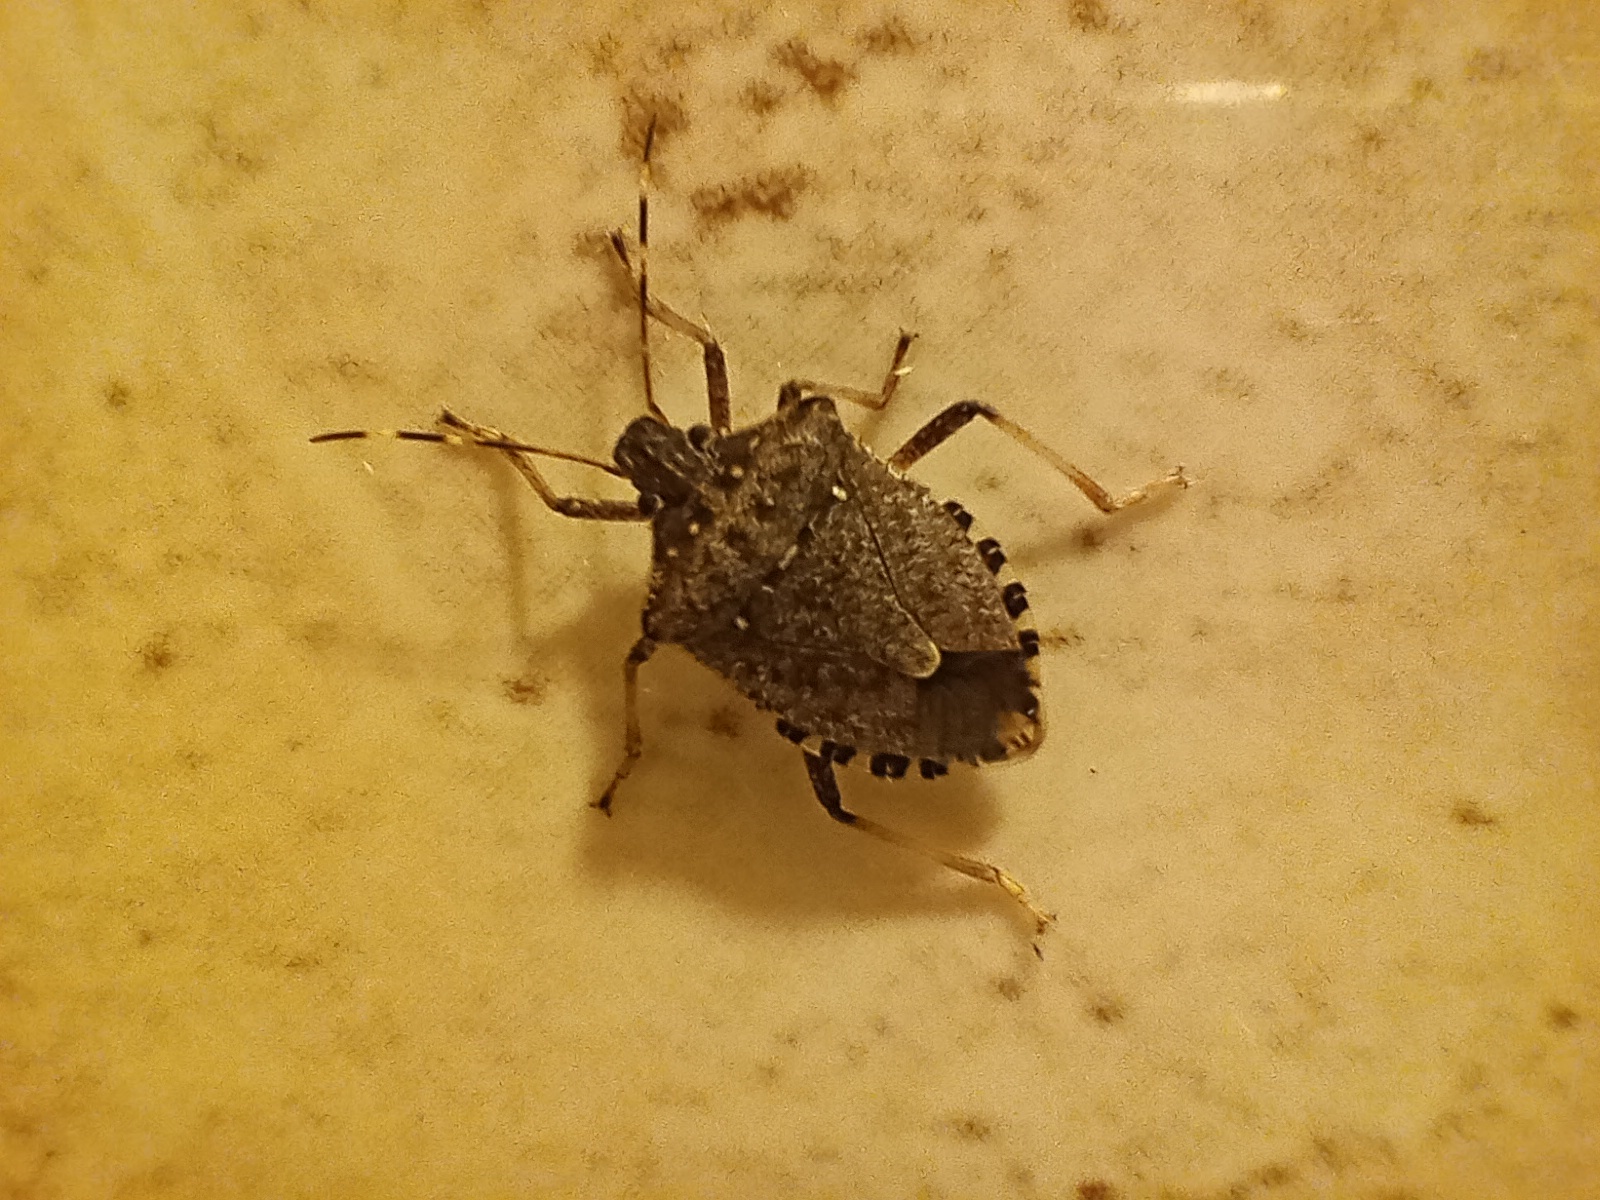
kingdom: Animalia
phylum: Arthropoda
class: Insecta
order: Hemiptera
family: Pentatomidae
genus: Halyomorpha
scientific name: Halyomorpha halys
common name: Brown marmorated stink bug
